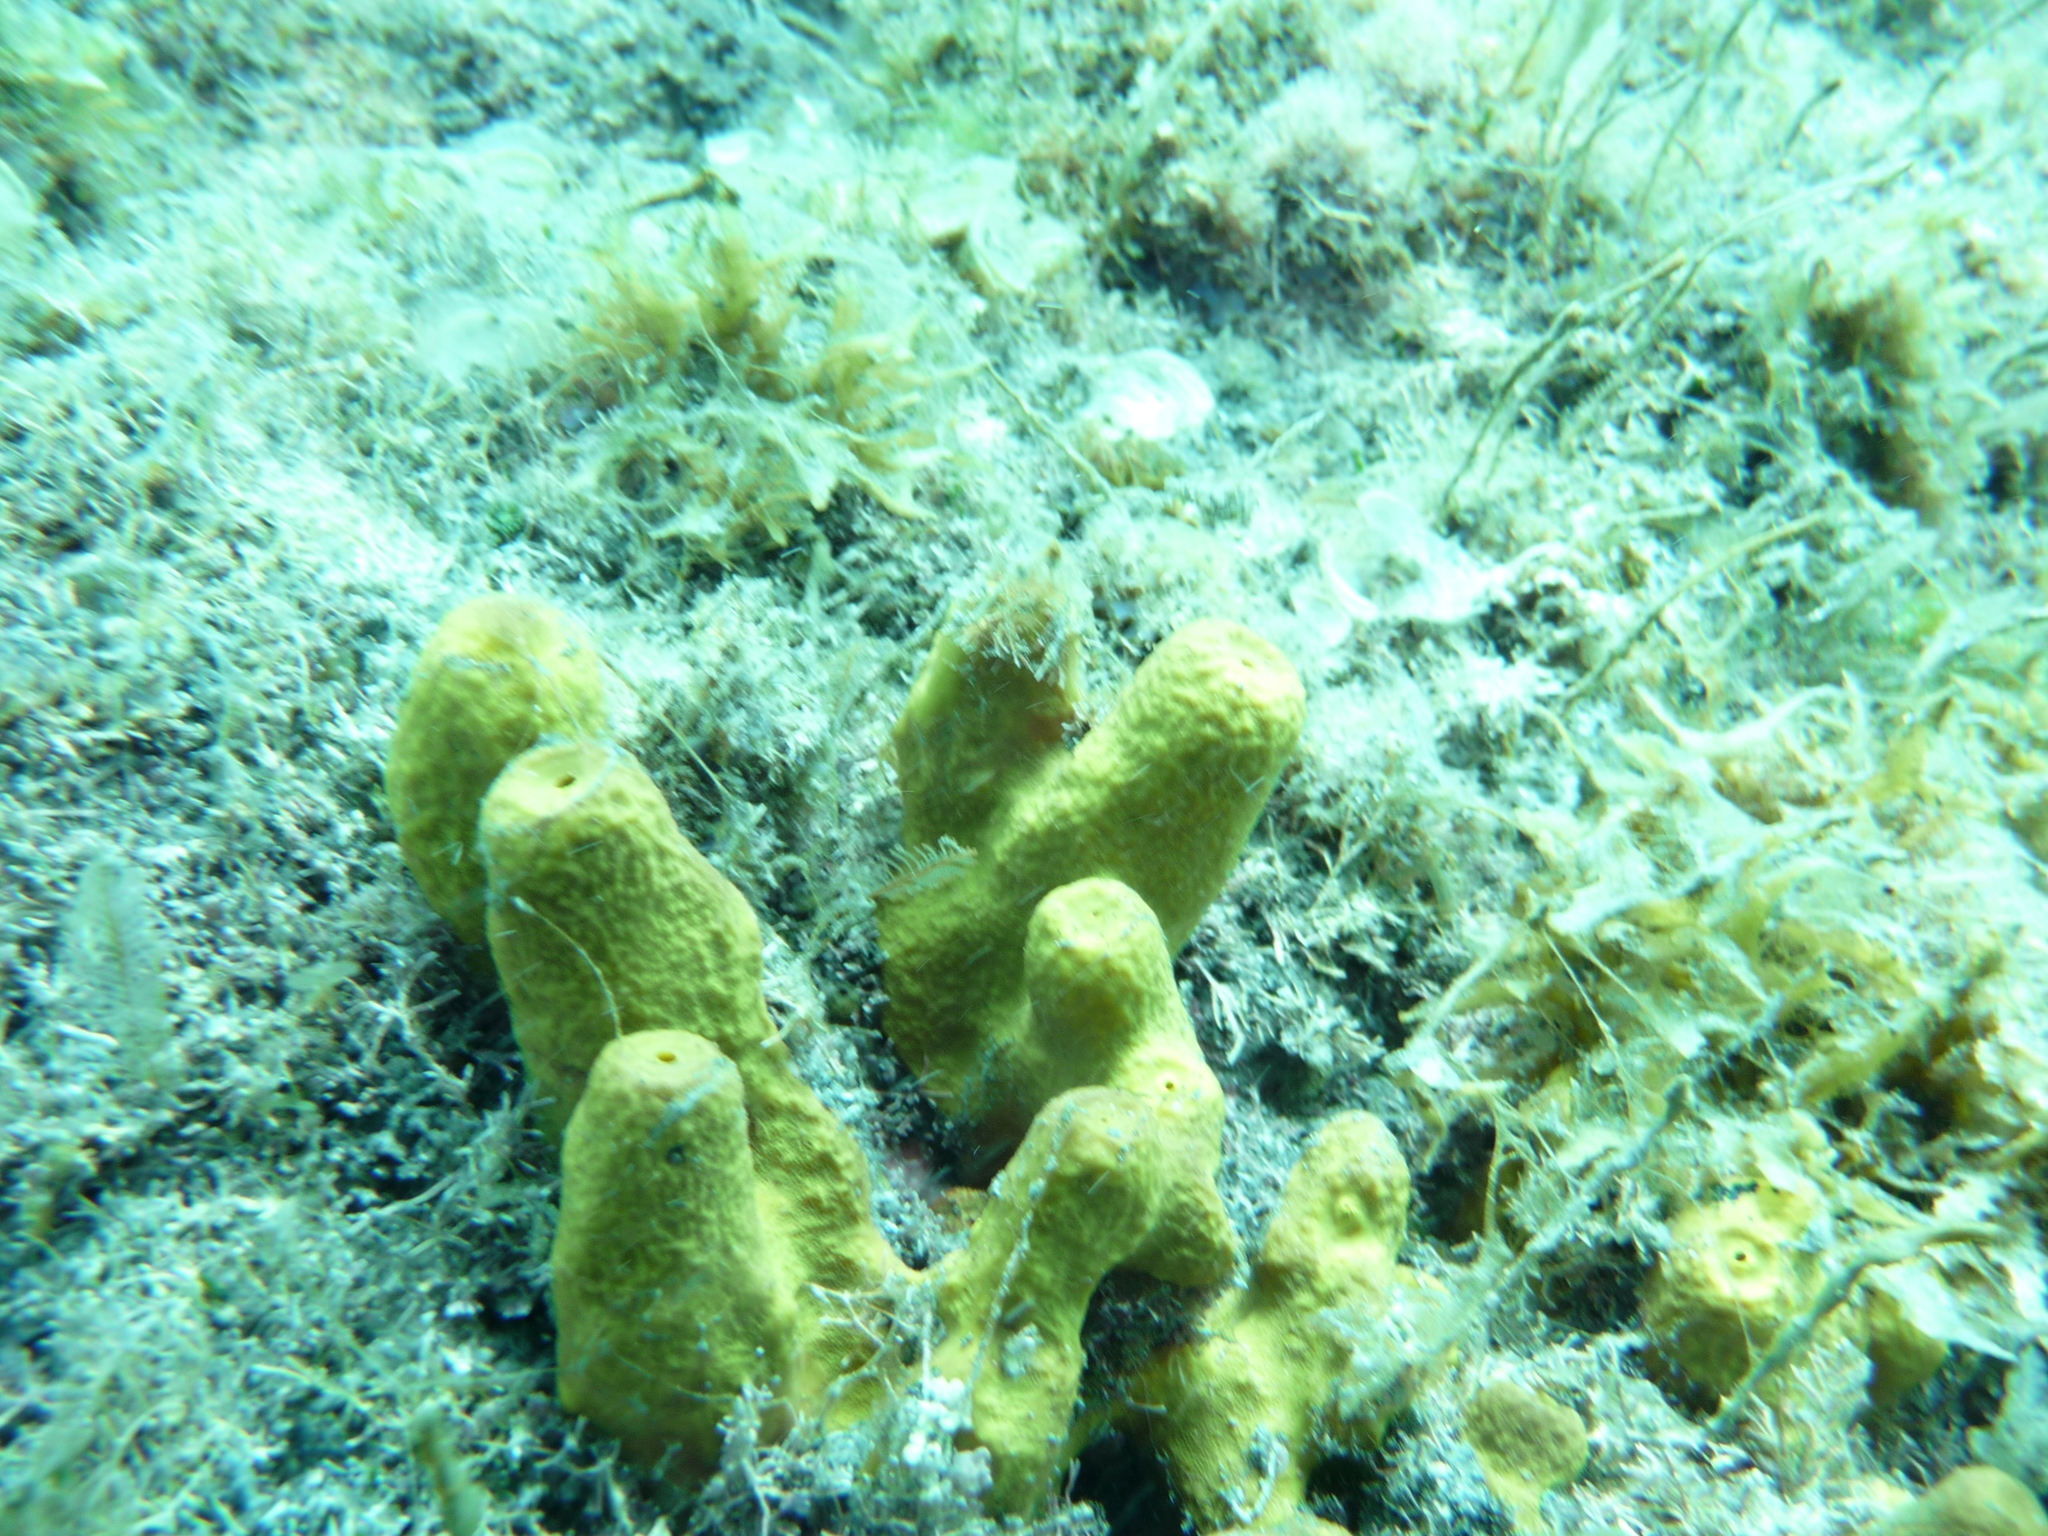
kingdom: Animalia
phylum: Porifera
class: Demospongiae
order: Verongiida
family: Aplysinidae
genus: Aplysina
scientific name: Aplysina aerophoba
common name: Aureate sponge
